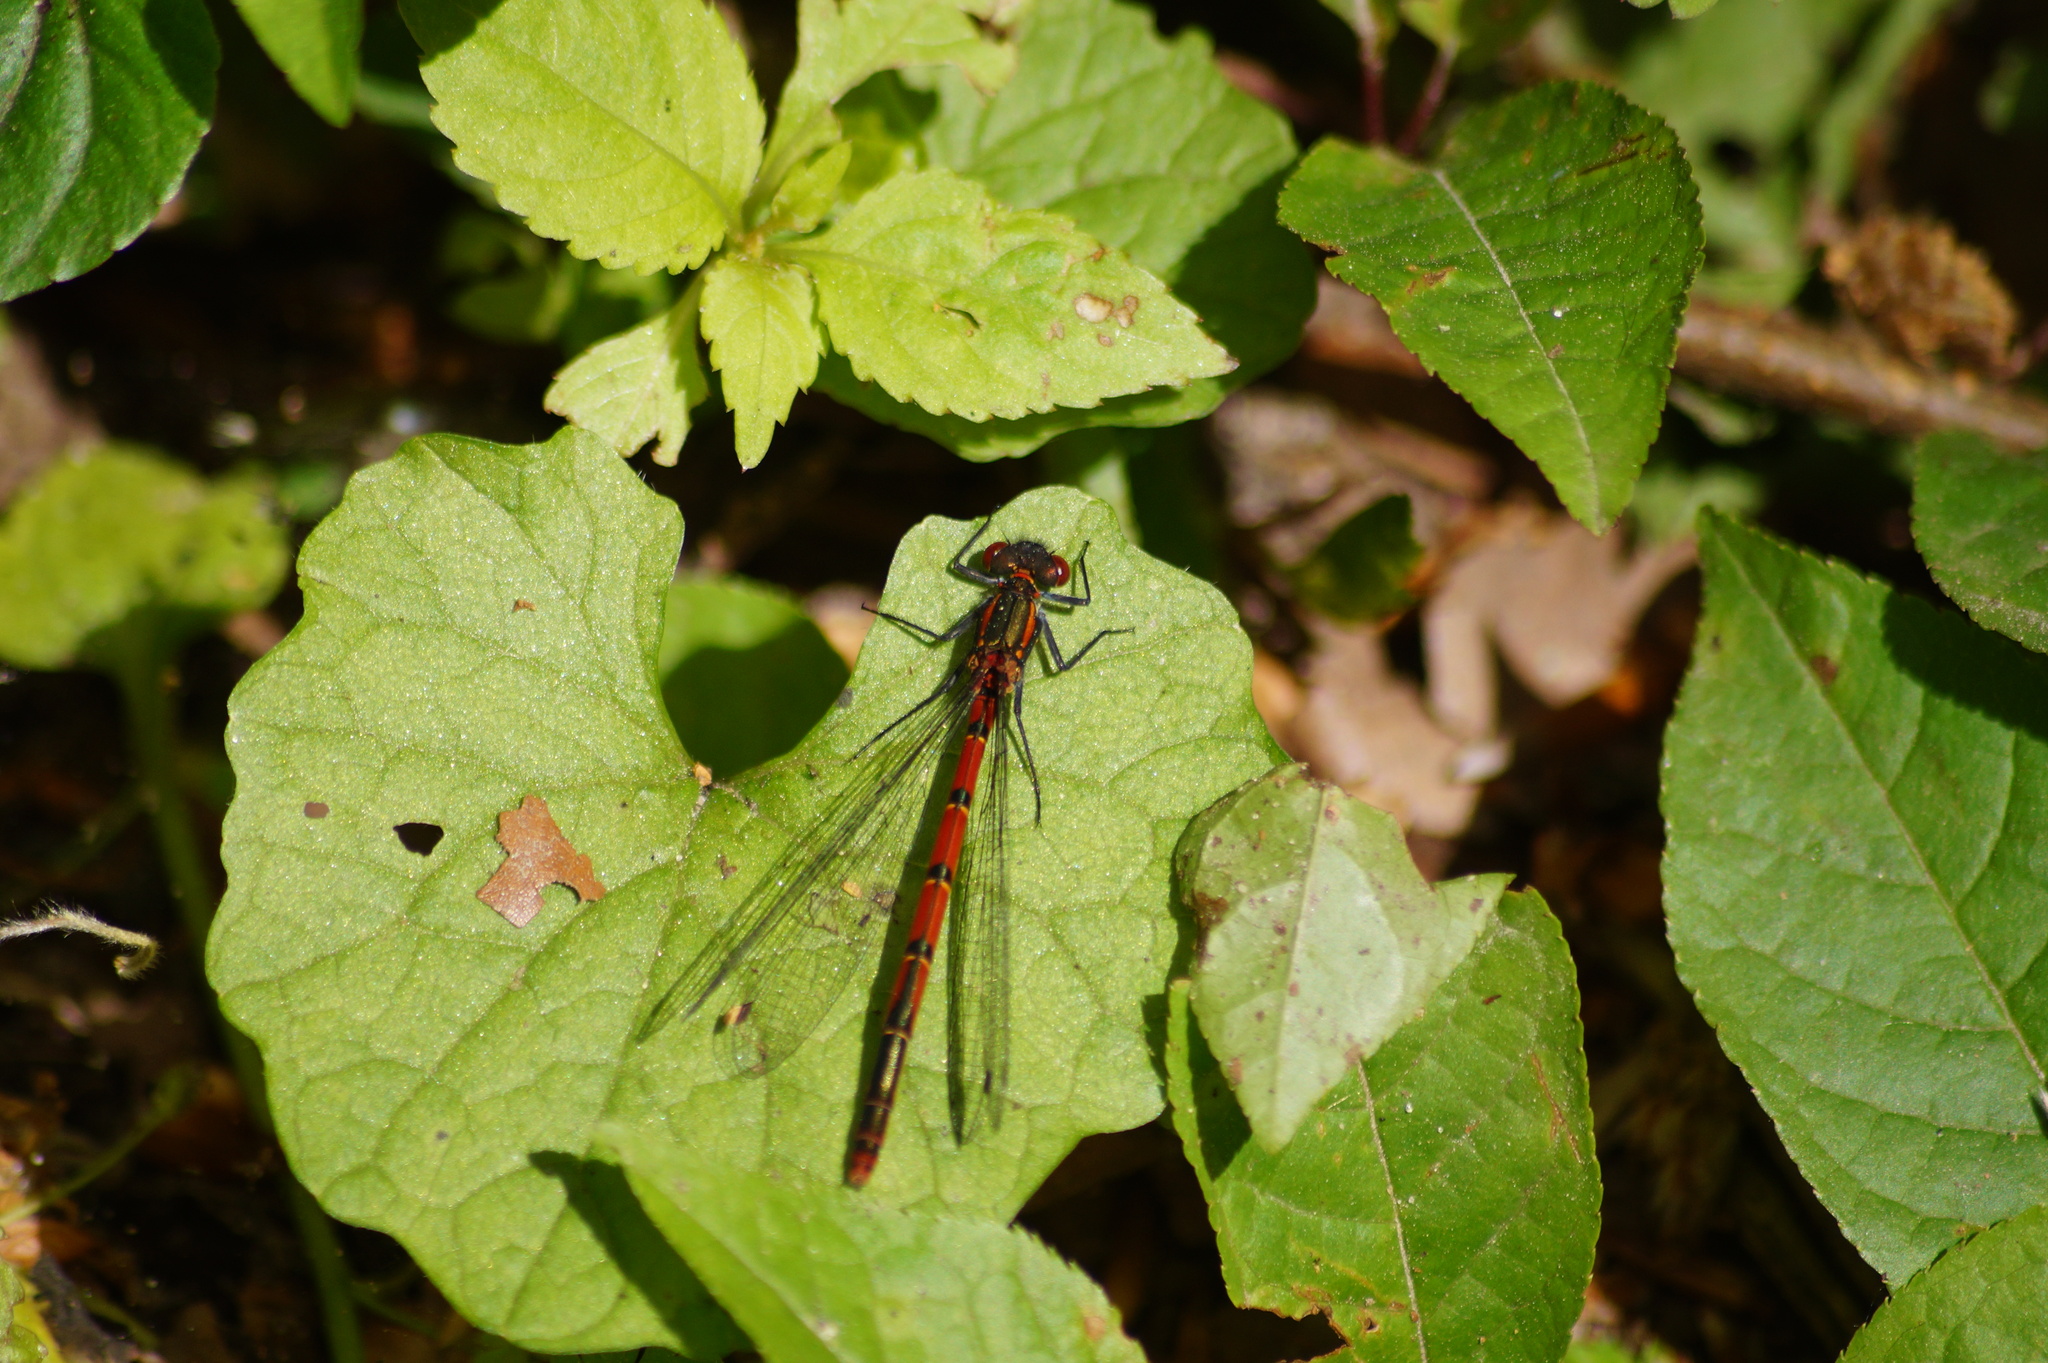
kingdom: Animalia
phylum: Arthropoda
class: Insecta
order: Odonata
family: Coenagrionidae
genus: Pyrrhosoma
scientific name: Pyrrhosoma nymphula
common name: Large red damsel
